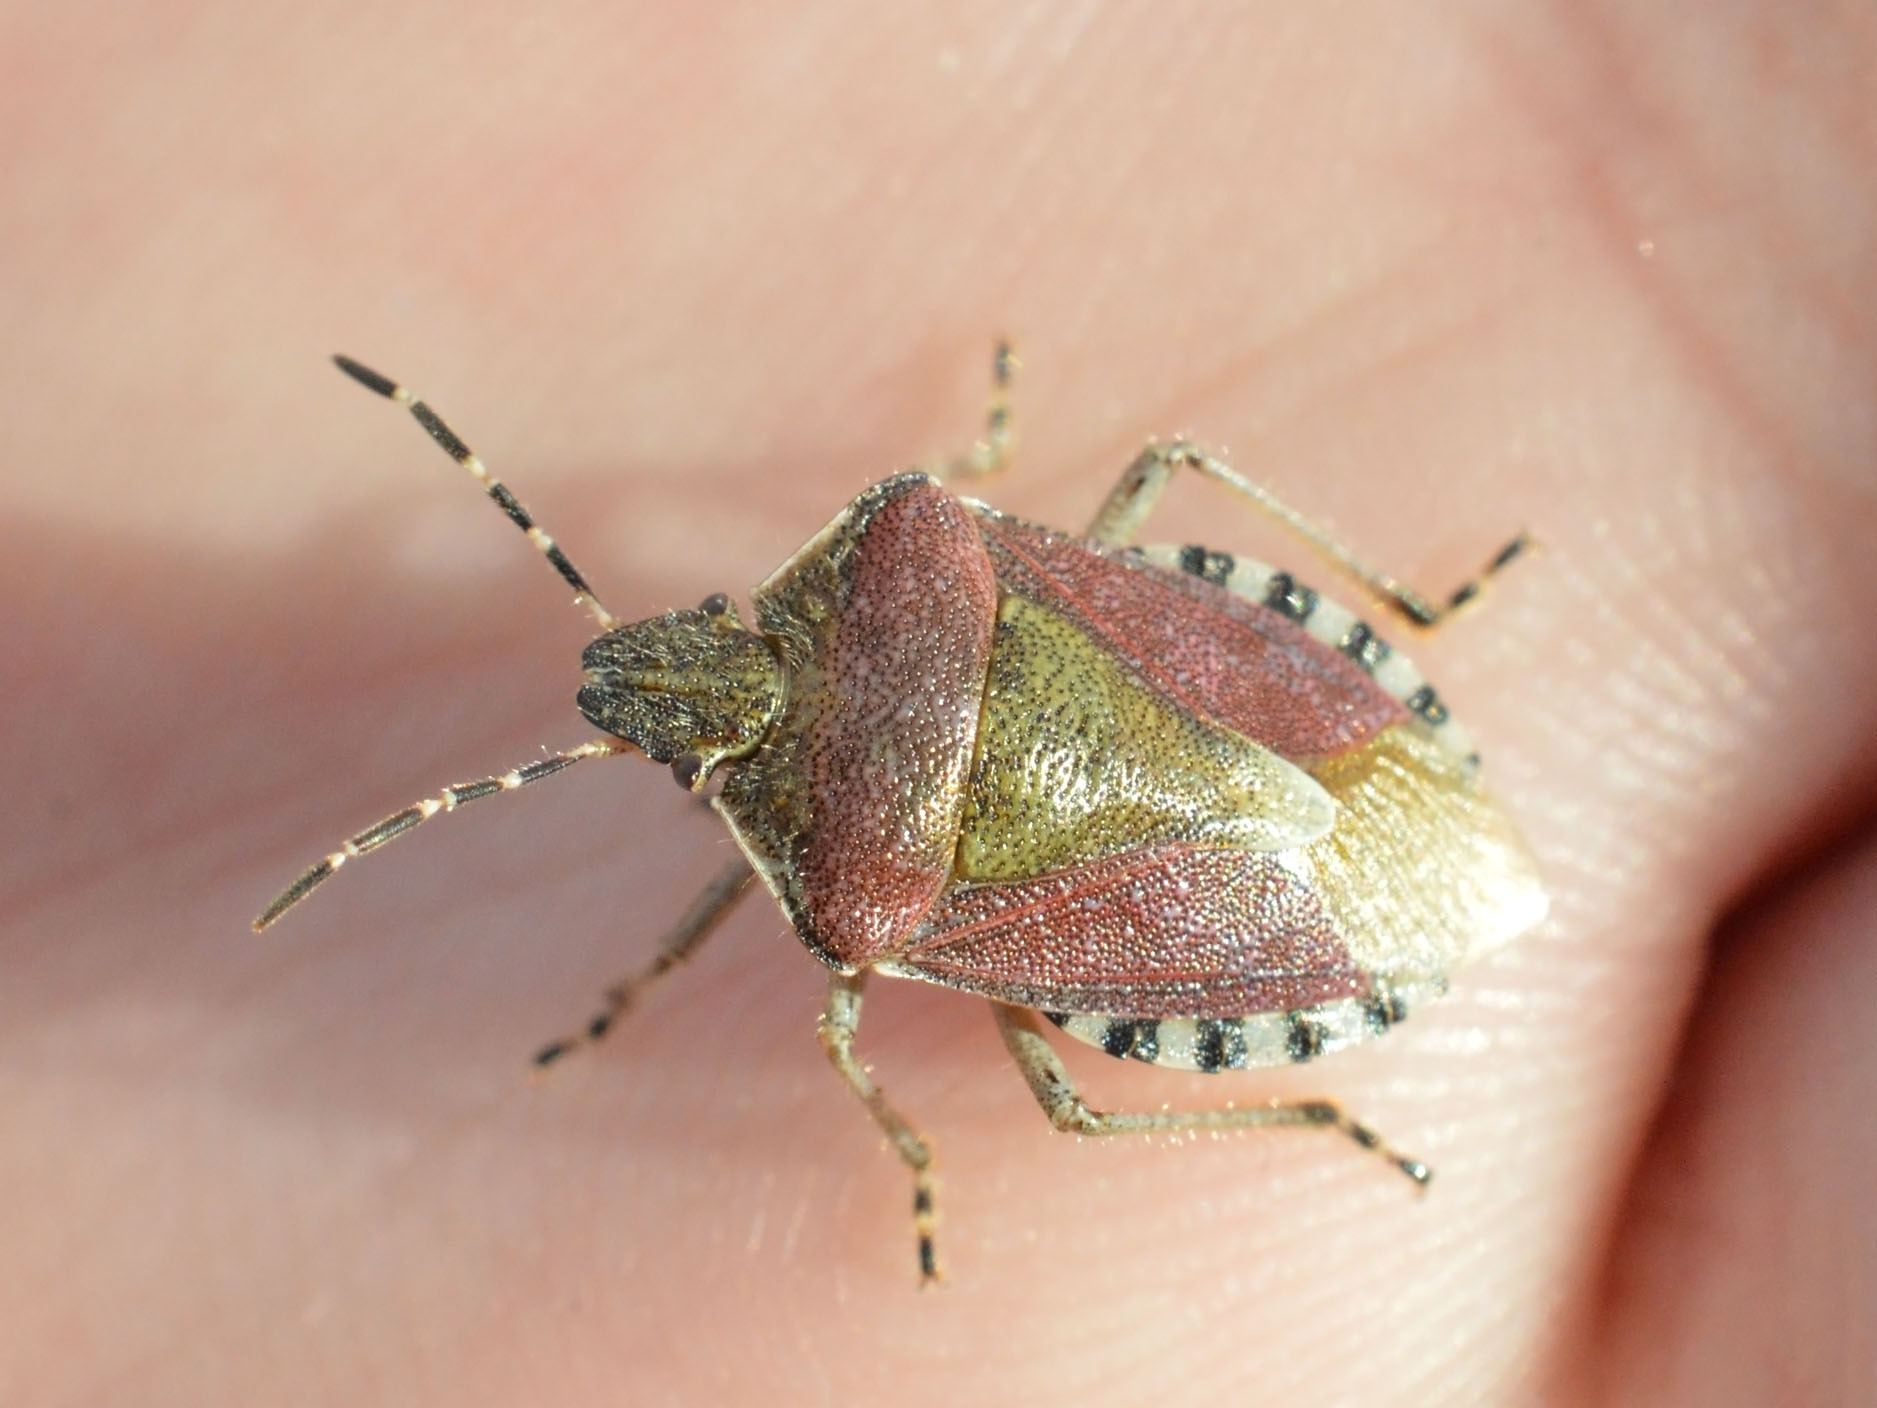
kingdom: Animalia
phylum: Arthropoda
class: Insecta
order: Hemiptera
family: Pentatomidae
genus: Dolycoris
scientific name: Dolycoris baccarum
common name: Sloe bug
